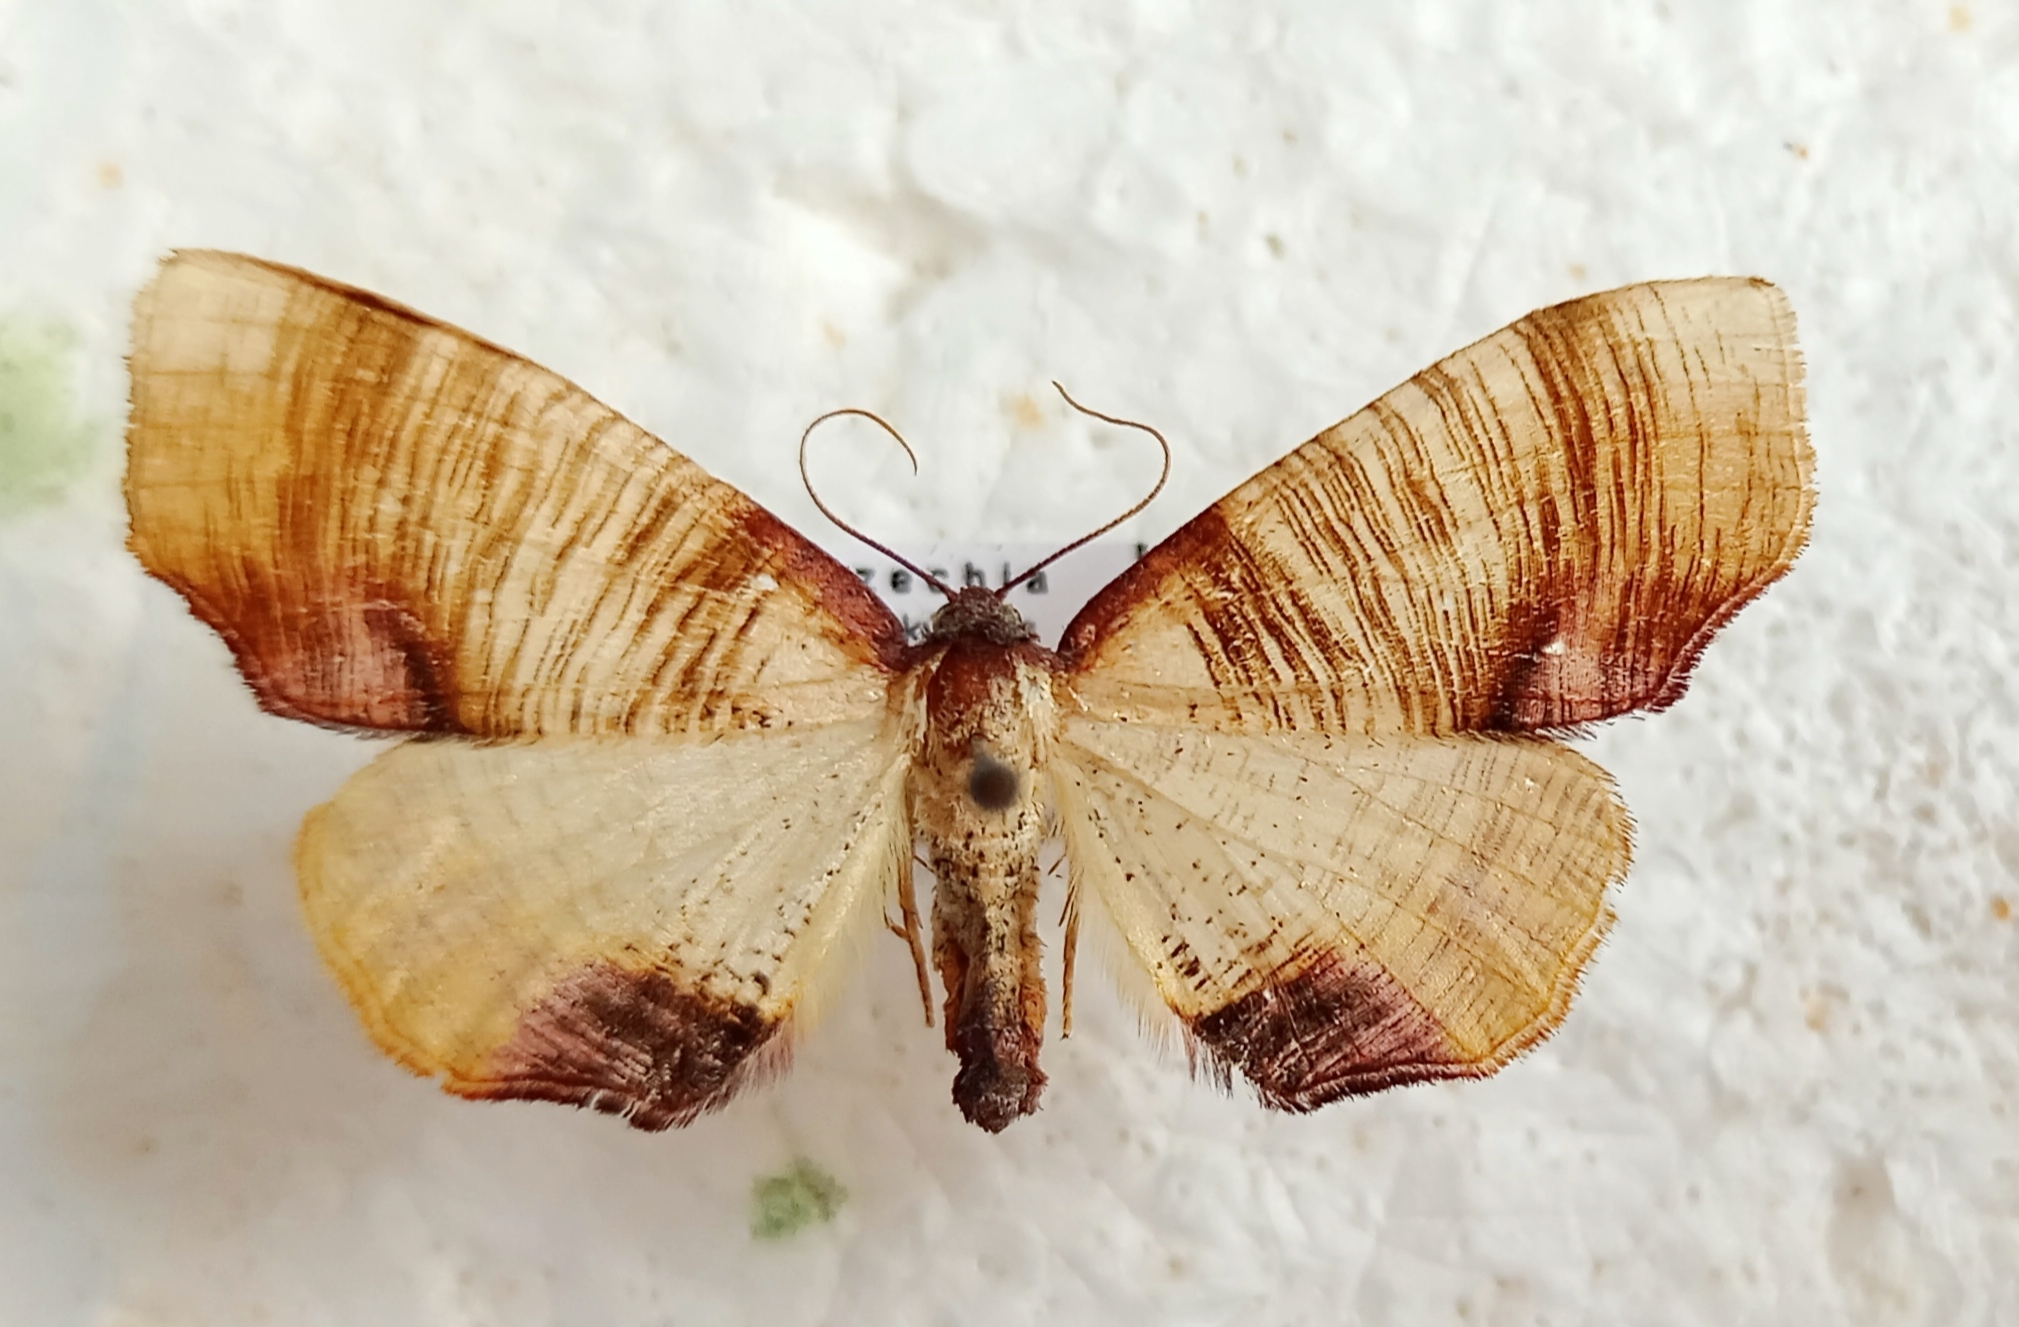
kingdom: Animalia
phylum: Arthropoda
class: Insecta
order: Lepidoptera
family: Geometridae
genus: Plagodis
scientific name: Plagodis dolabraria
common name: Scorched wing
